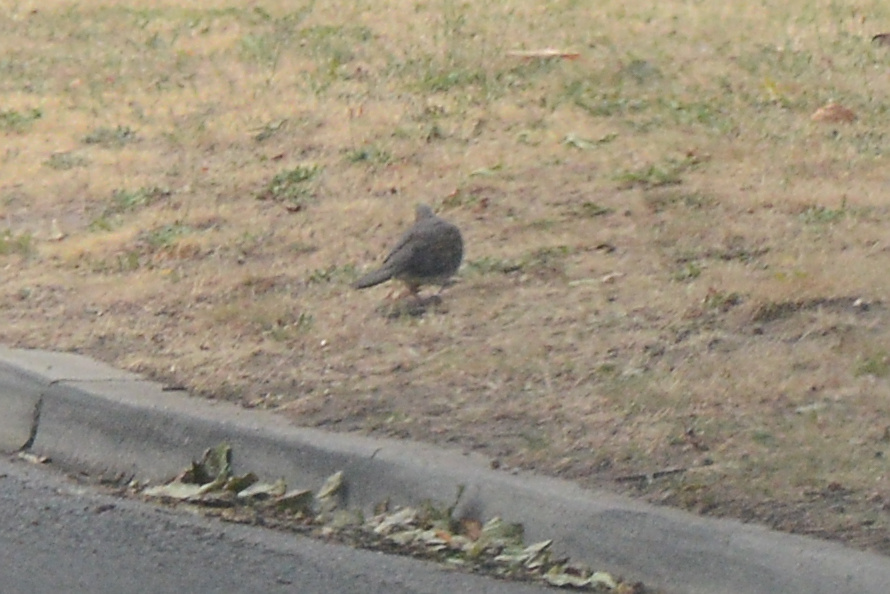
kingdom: Animalia
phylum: Chordata
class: Aves
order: Columbiformes
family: Columbidae
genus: Spilopelia
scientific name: Spilopelia chinensis
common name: Spotted dove
